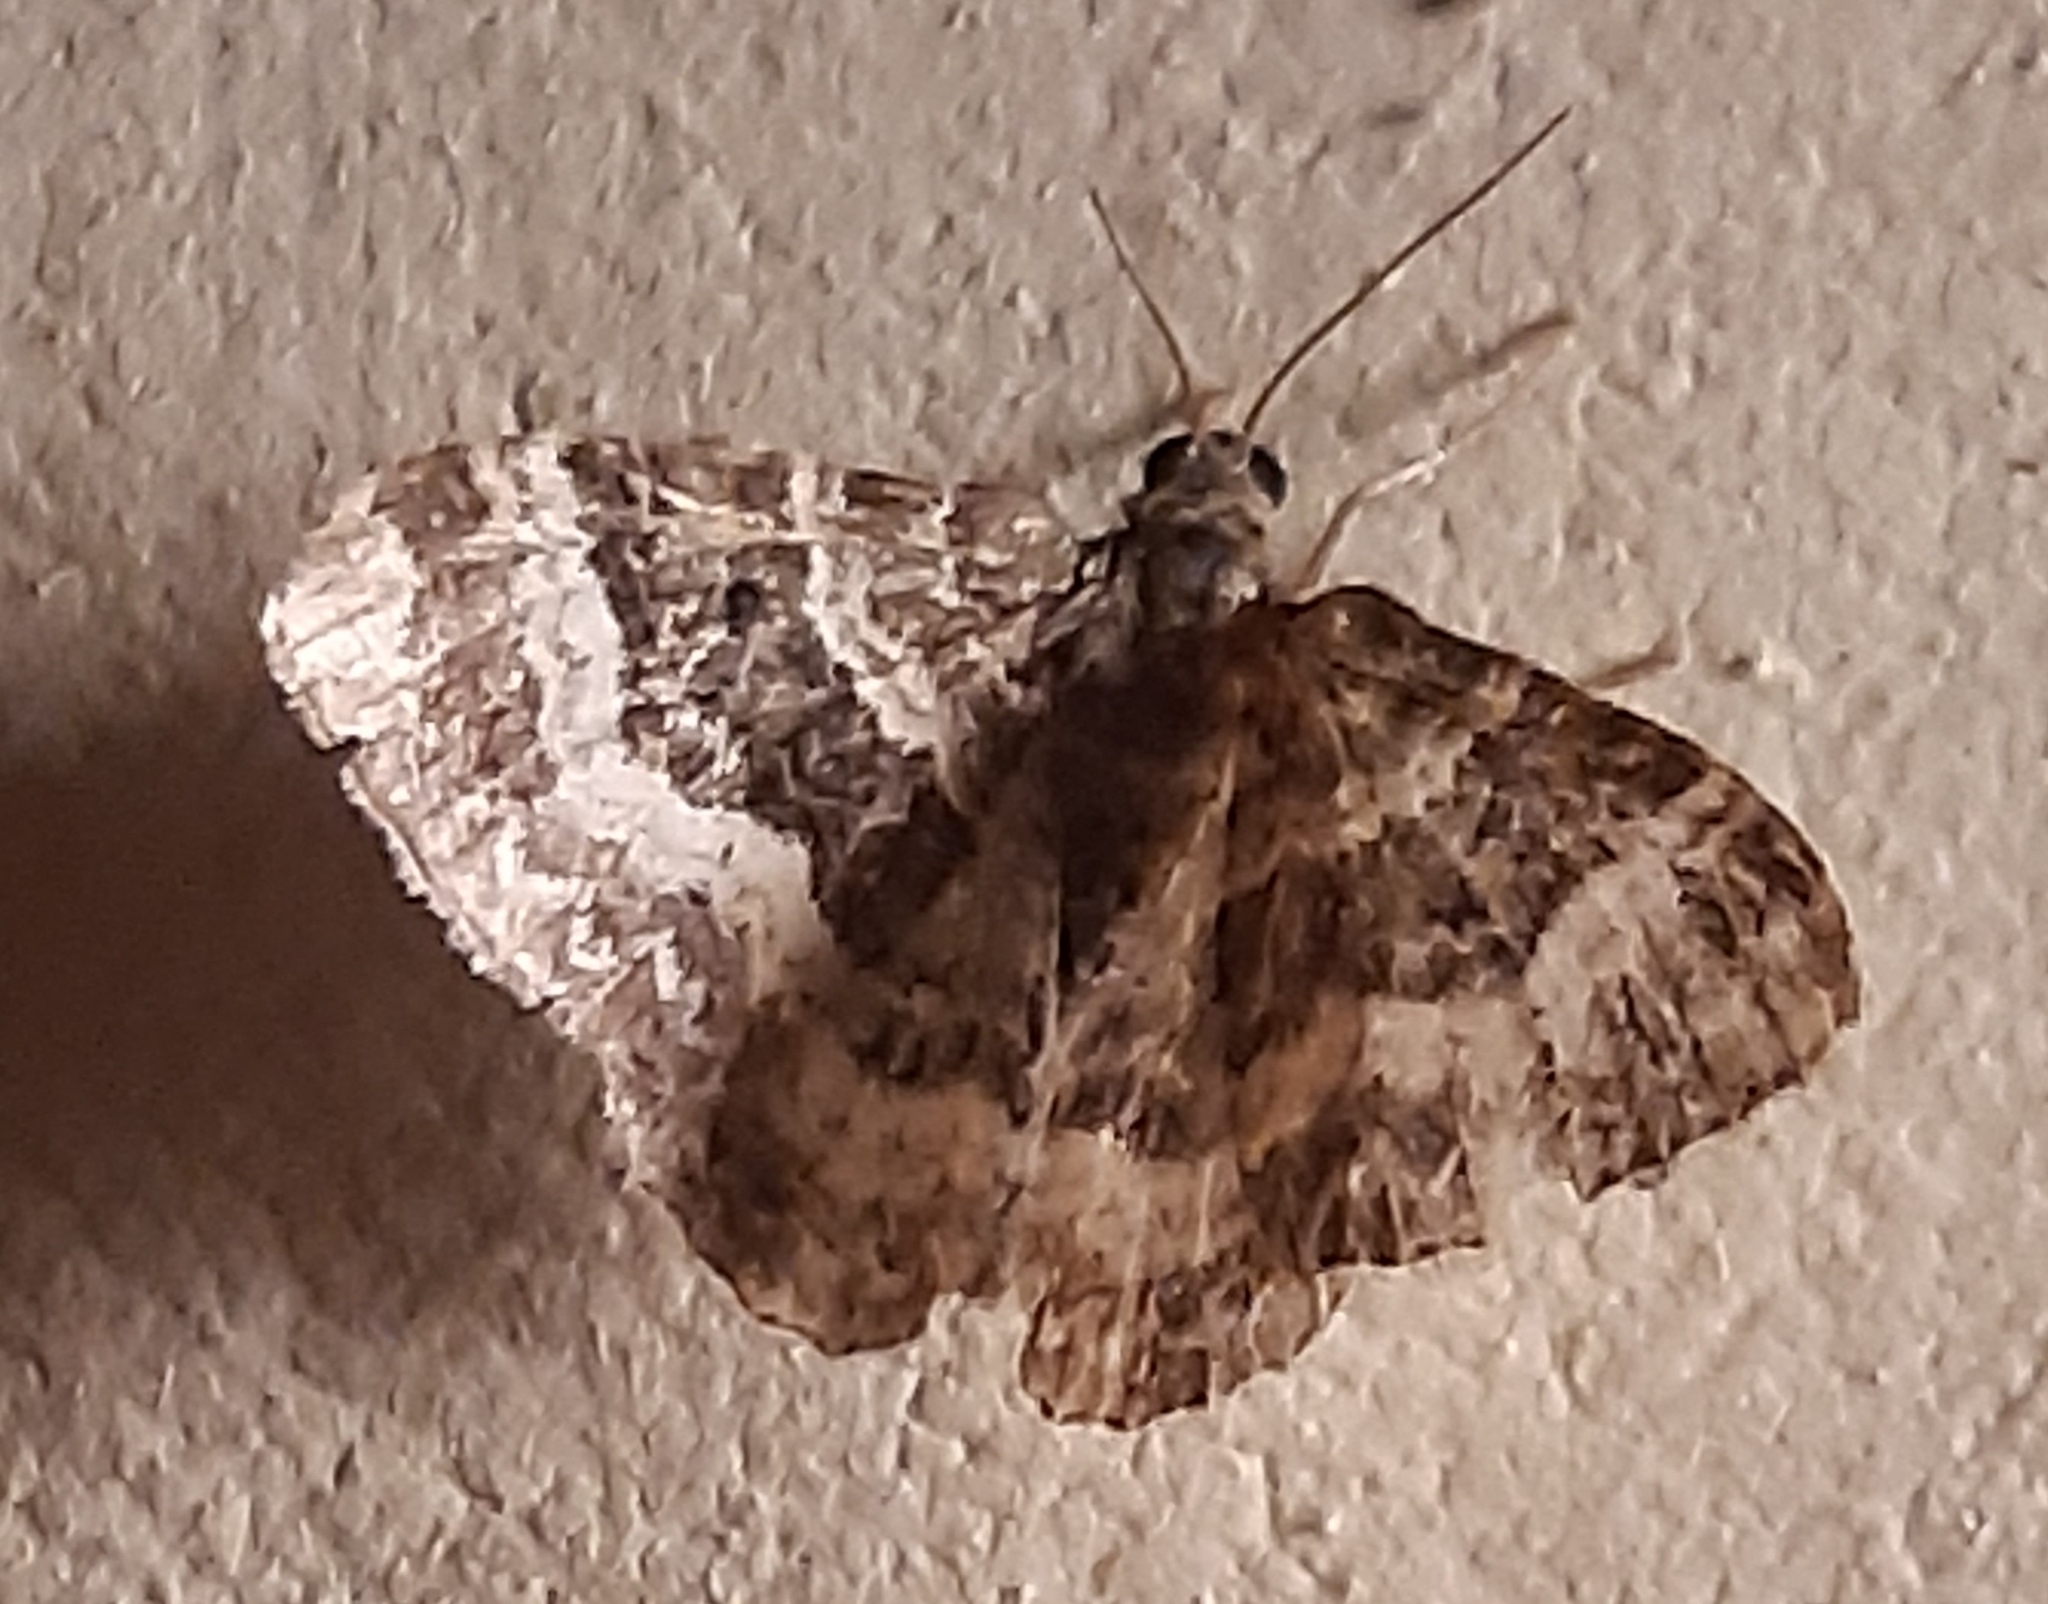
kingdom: Animalia
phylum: Arthropoda
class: Insecta
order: Lepidoptera
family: Geometridae
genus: Epirrhoe
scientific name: Epirrhoe alternata
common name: Common carpet
